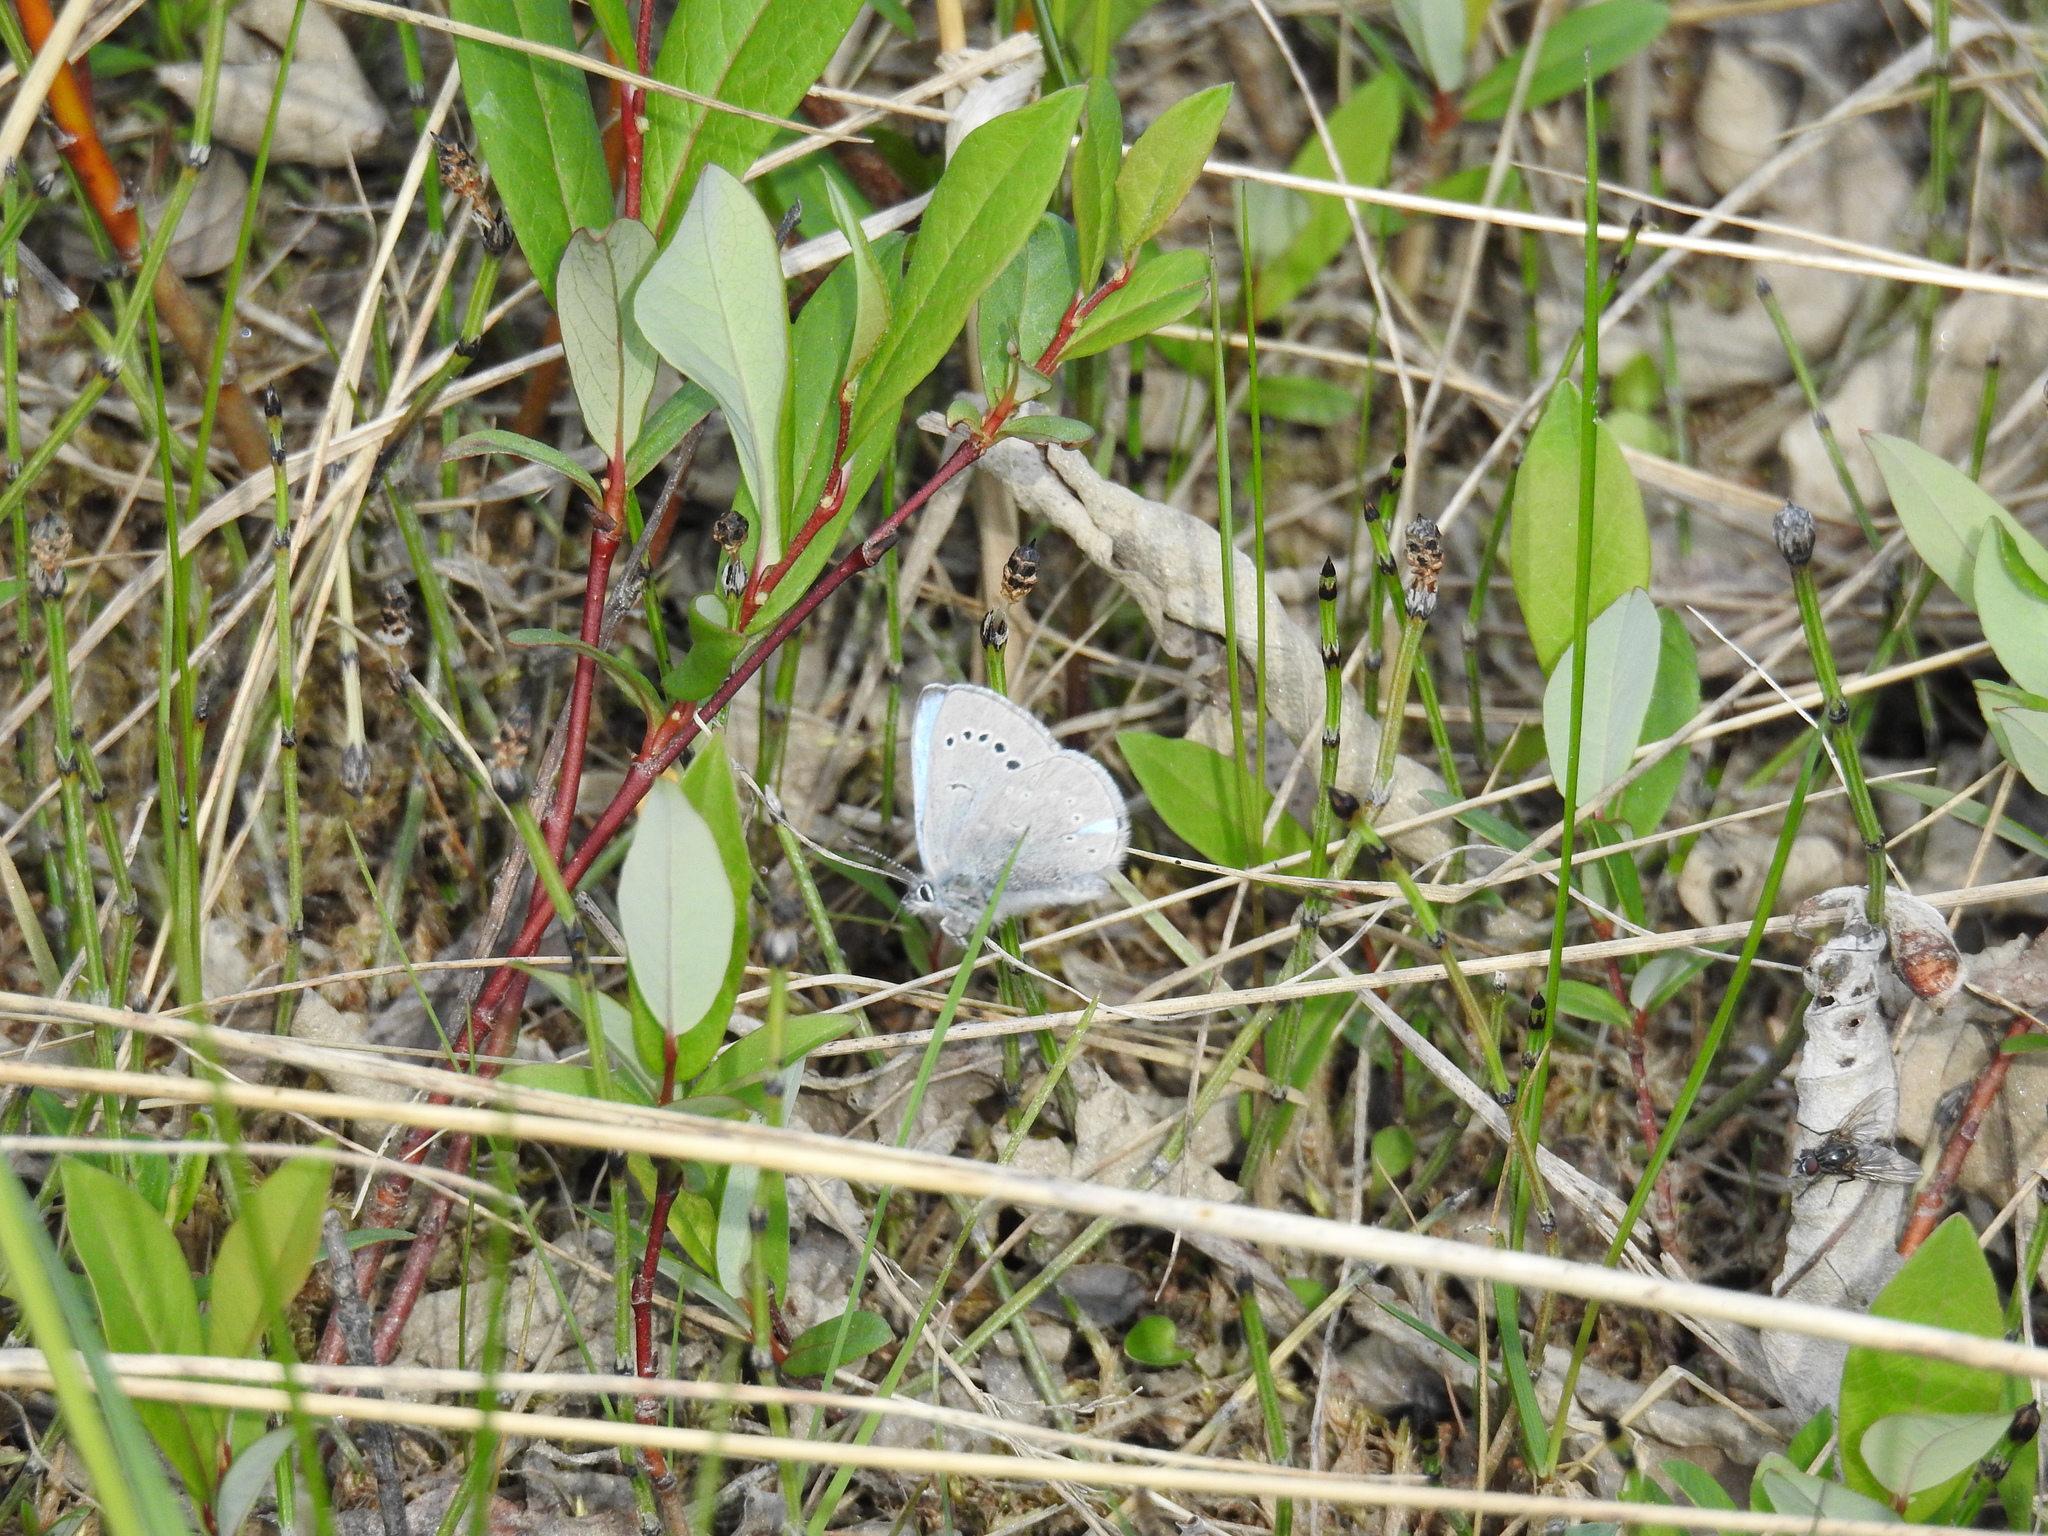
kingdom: Animalia
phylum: Arthropoda
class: Insecta
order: Lepidoptera
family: Lycaenidae
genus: Glaucopsyche
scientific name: Glaucopsyche lygdamus
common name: Silvery blue
